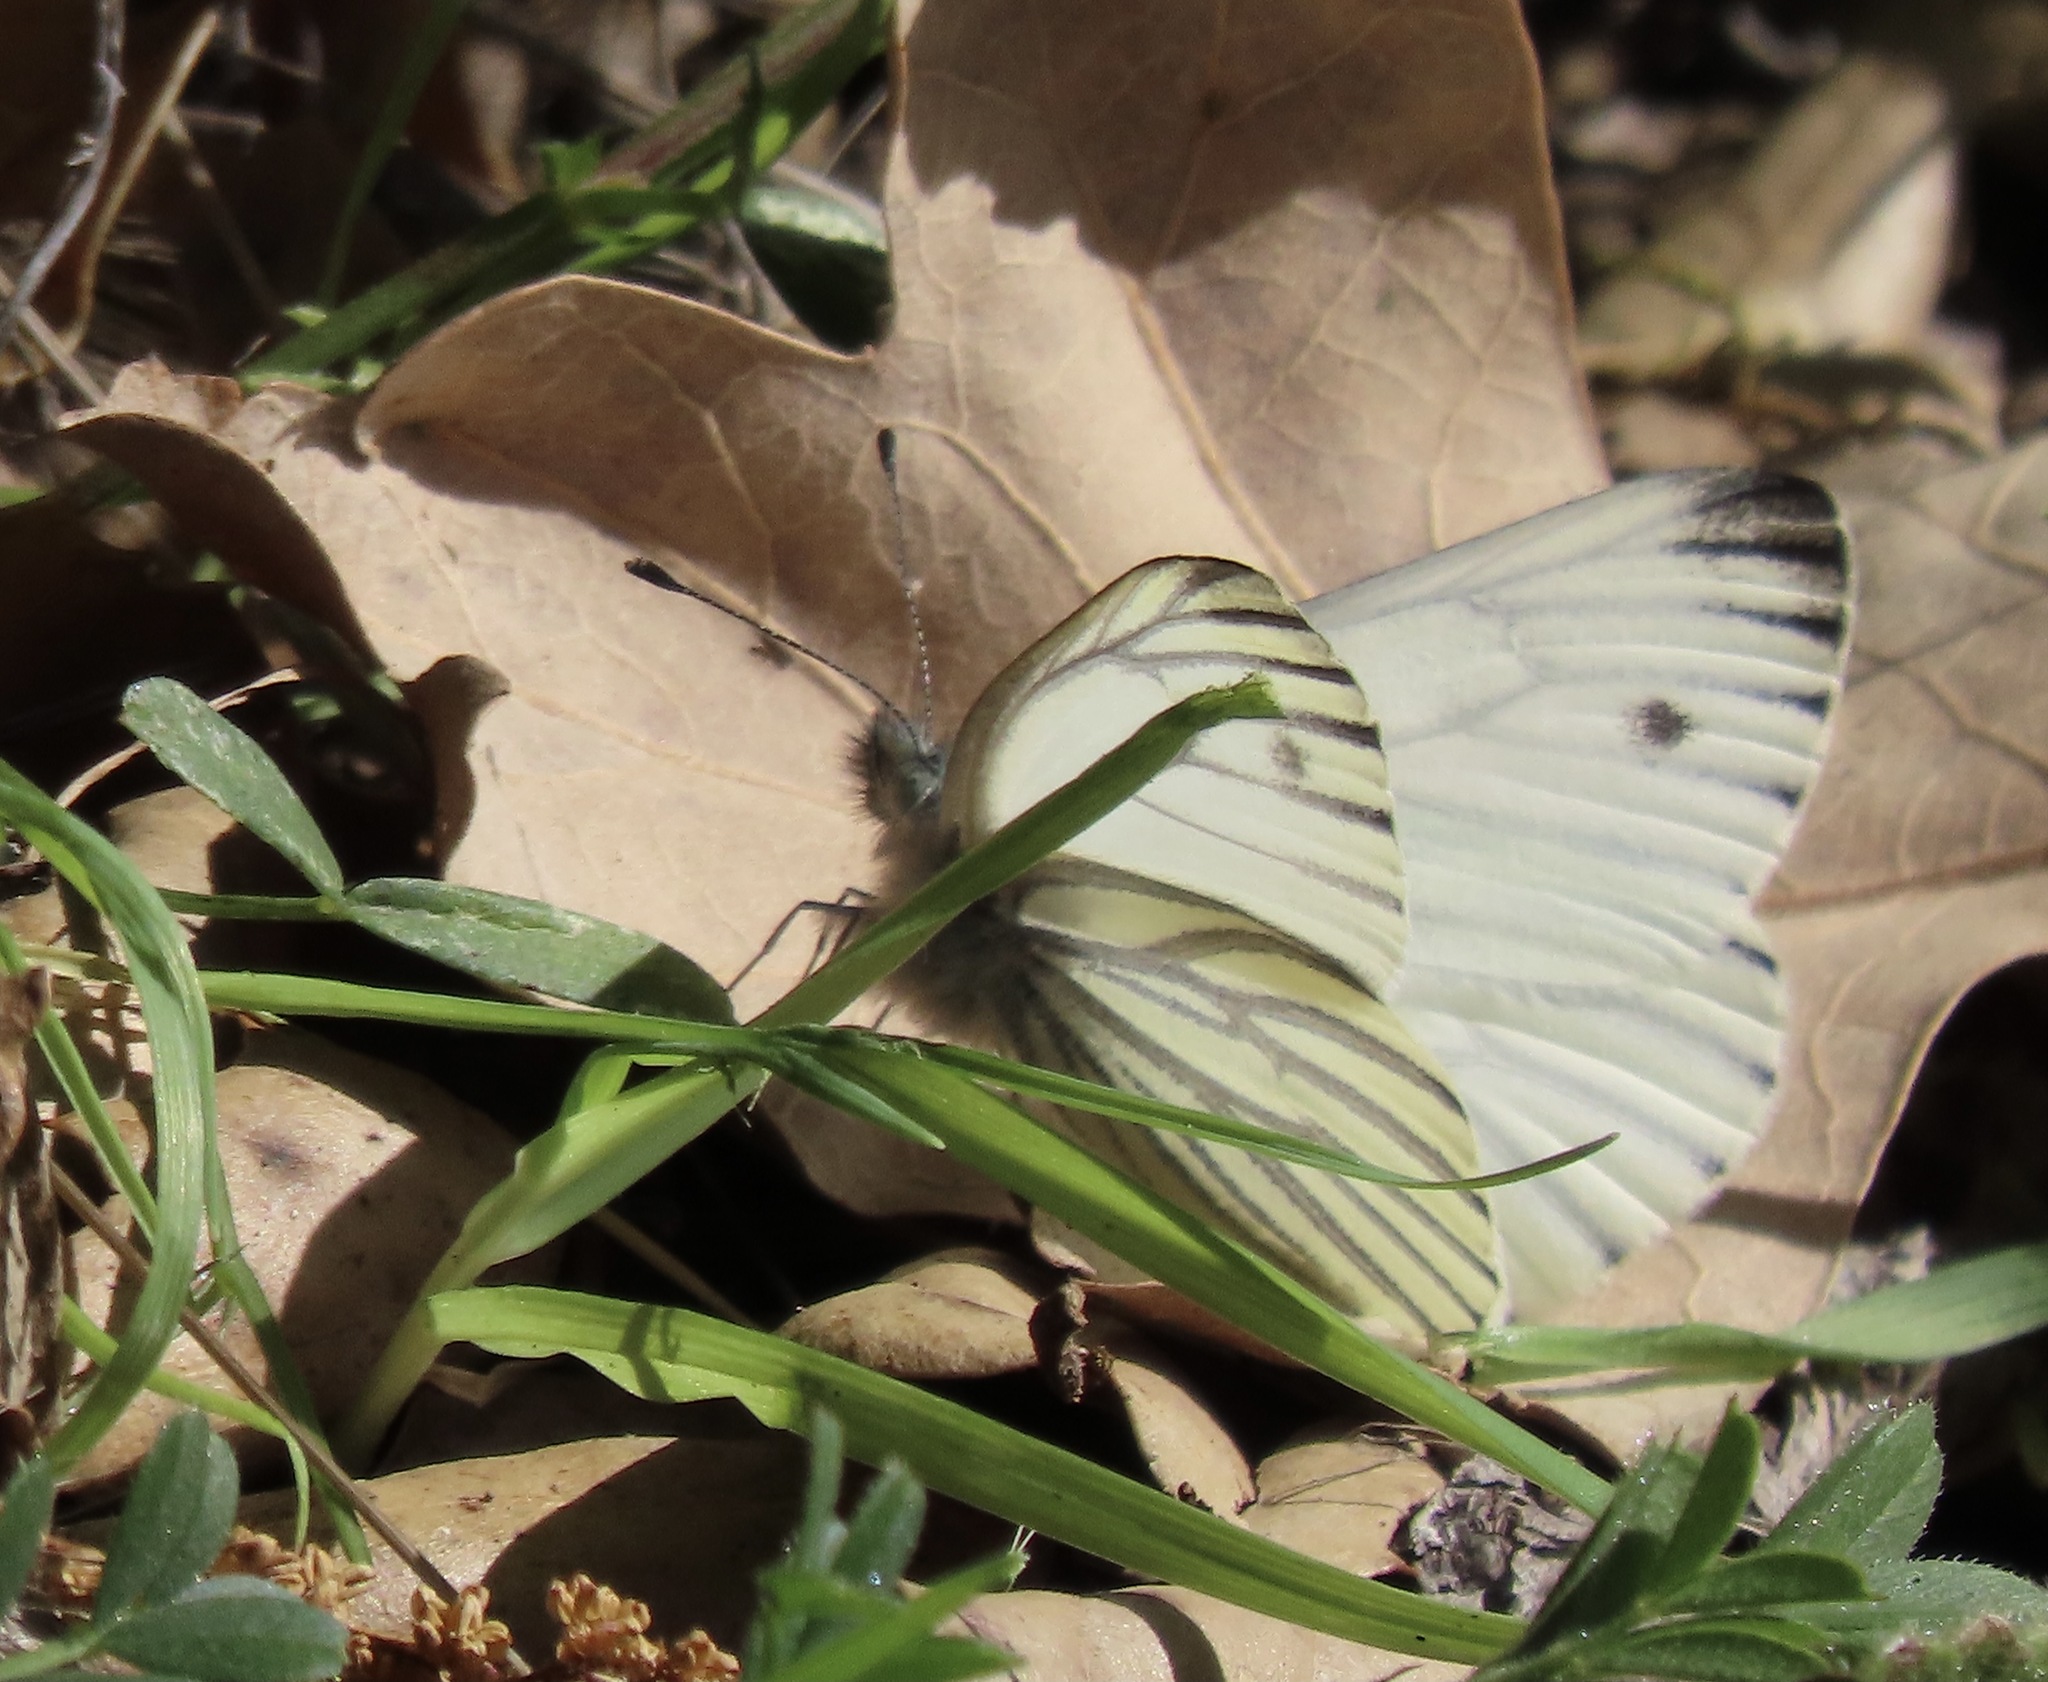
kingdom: Animalia
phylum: Arthropoda
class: Insecta
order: Lepidoptera
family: Pieridae
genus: Pieris
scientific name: Pieris marginalis
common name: Margined white
